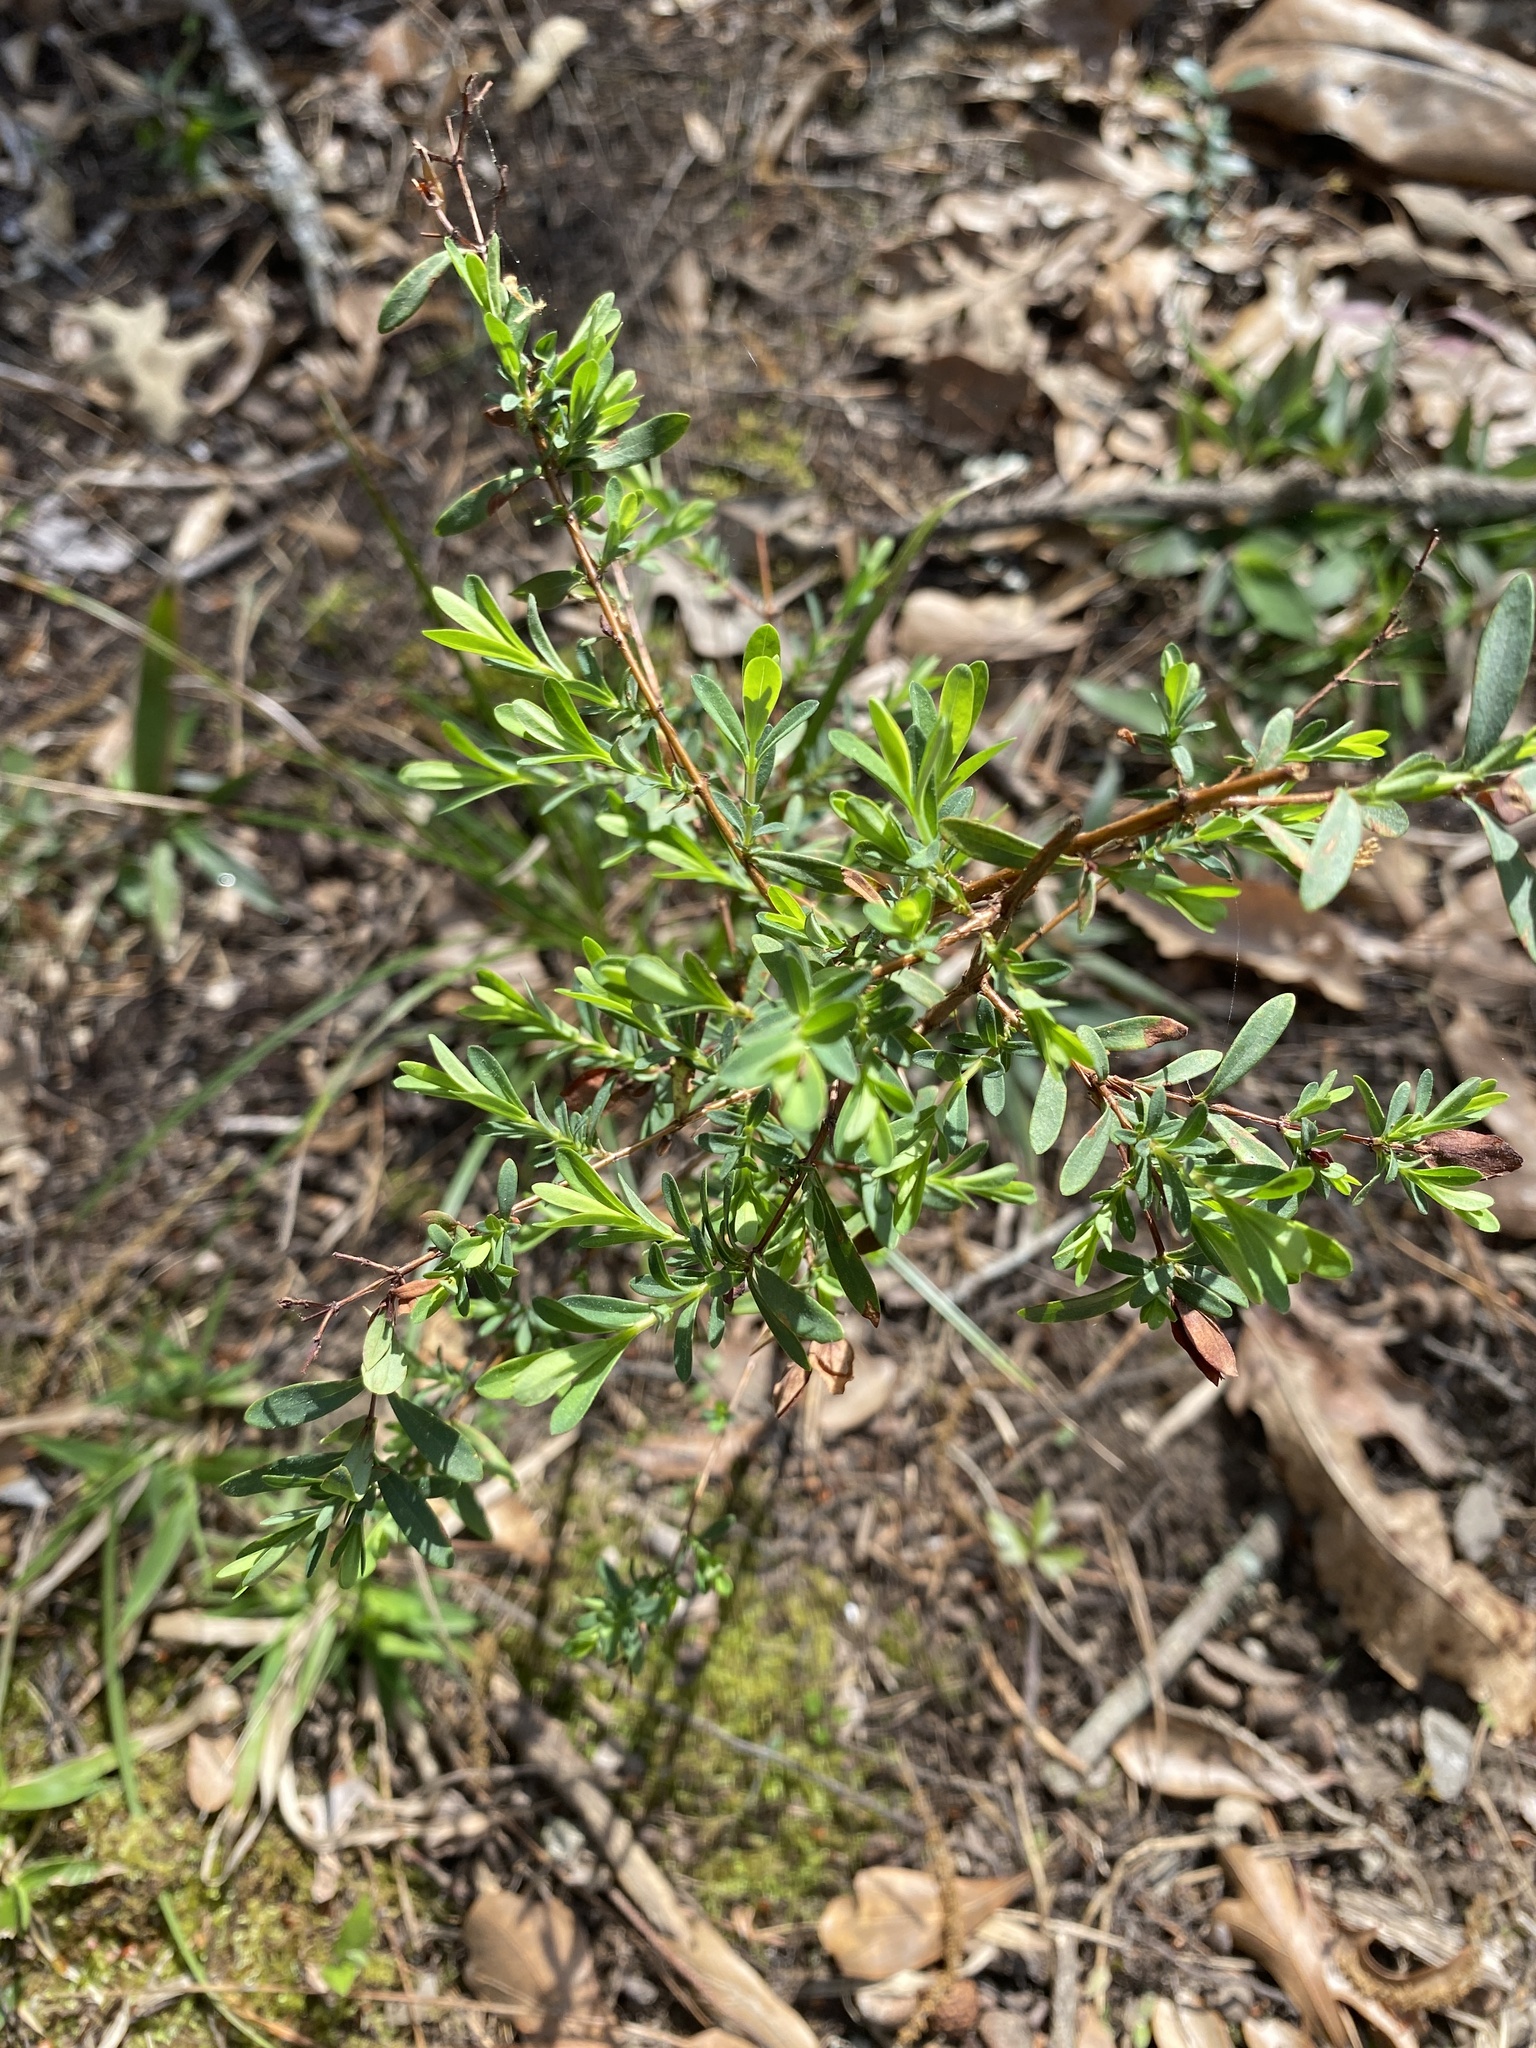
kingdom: Plantae
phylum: Tracheophyta
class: Magnoliopsida
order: Malpighiales
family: Hypericaceae
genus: Hypericum
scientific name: Hypericum hypericoides
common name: St. andrew's cross
